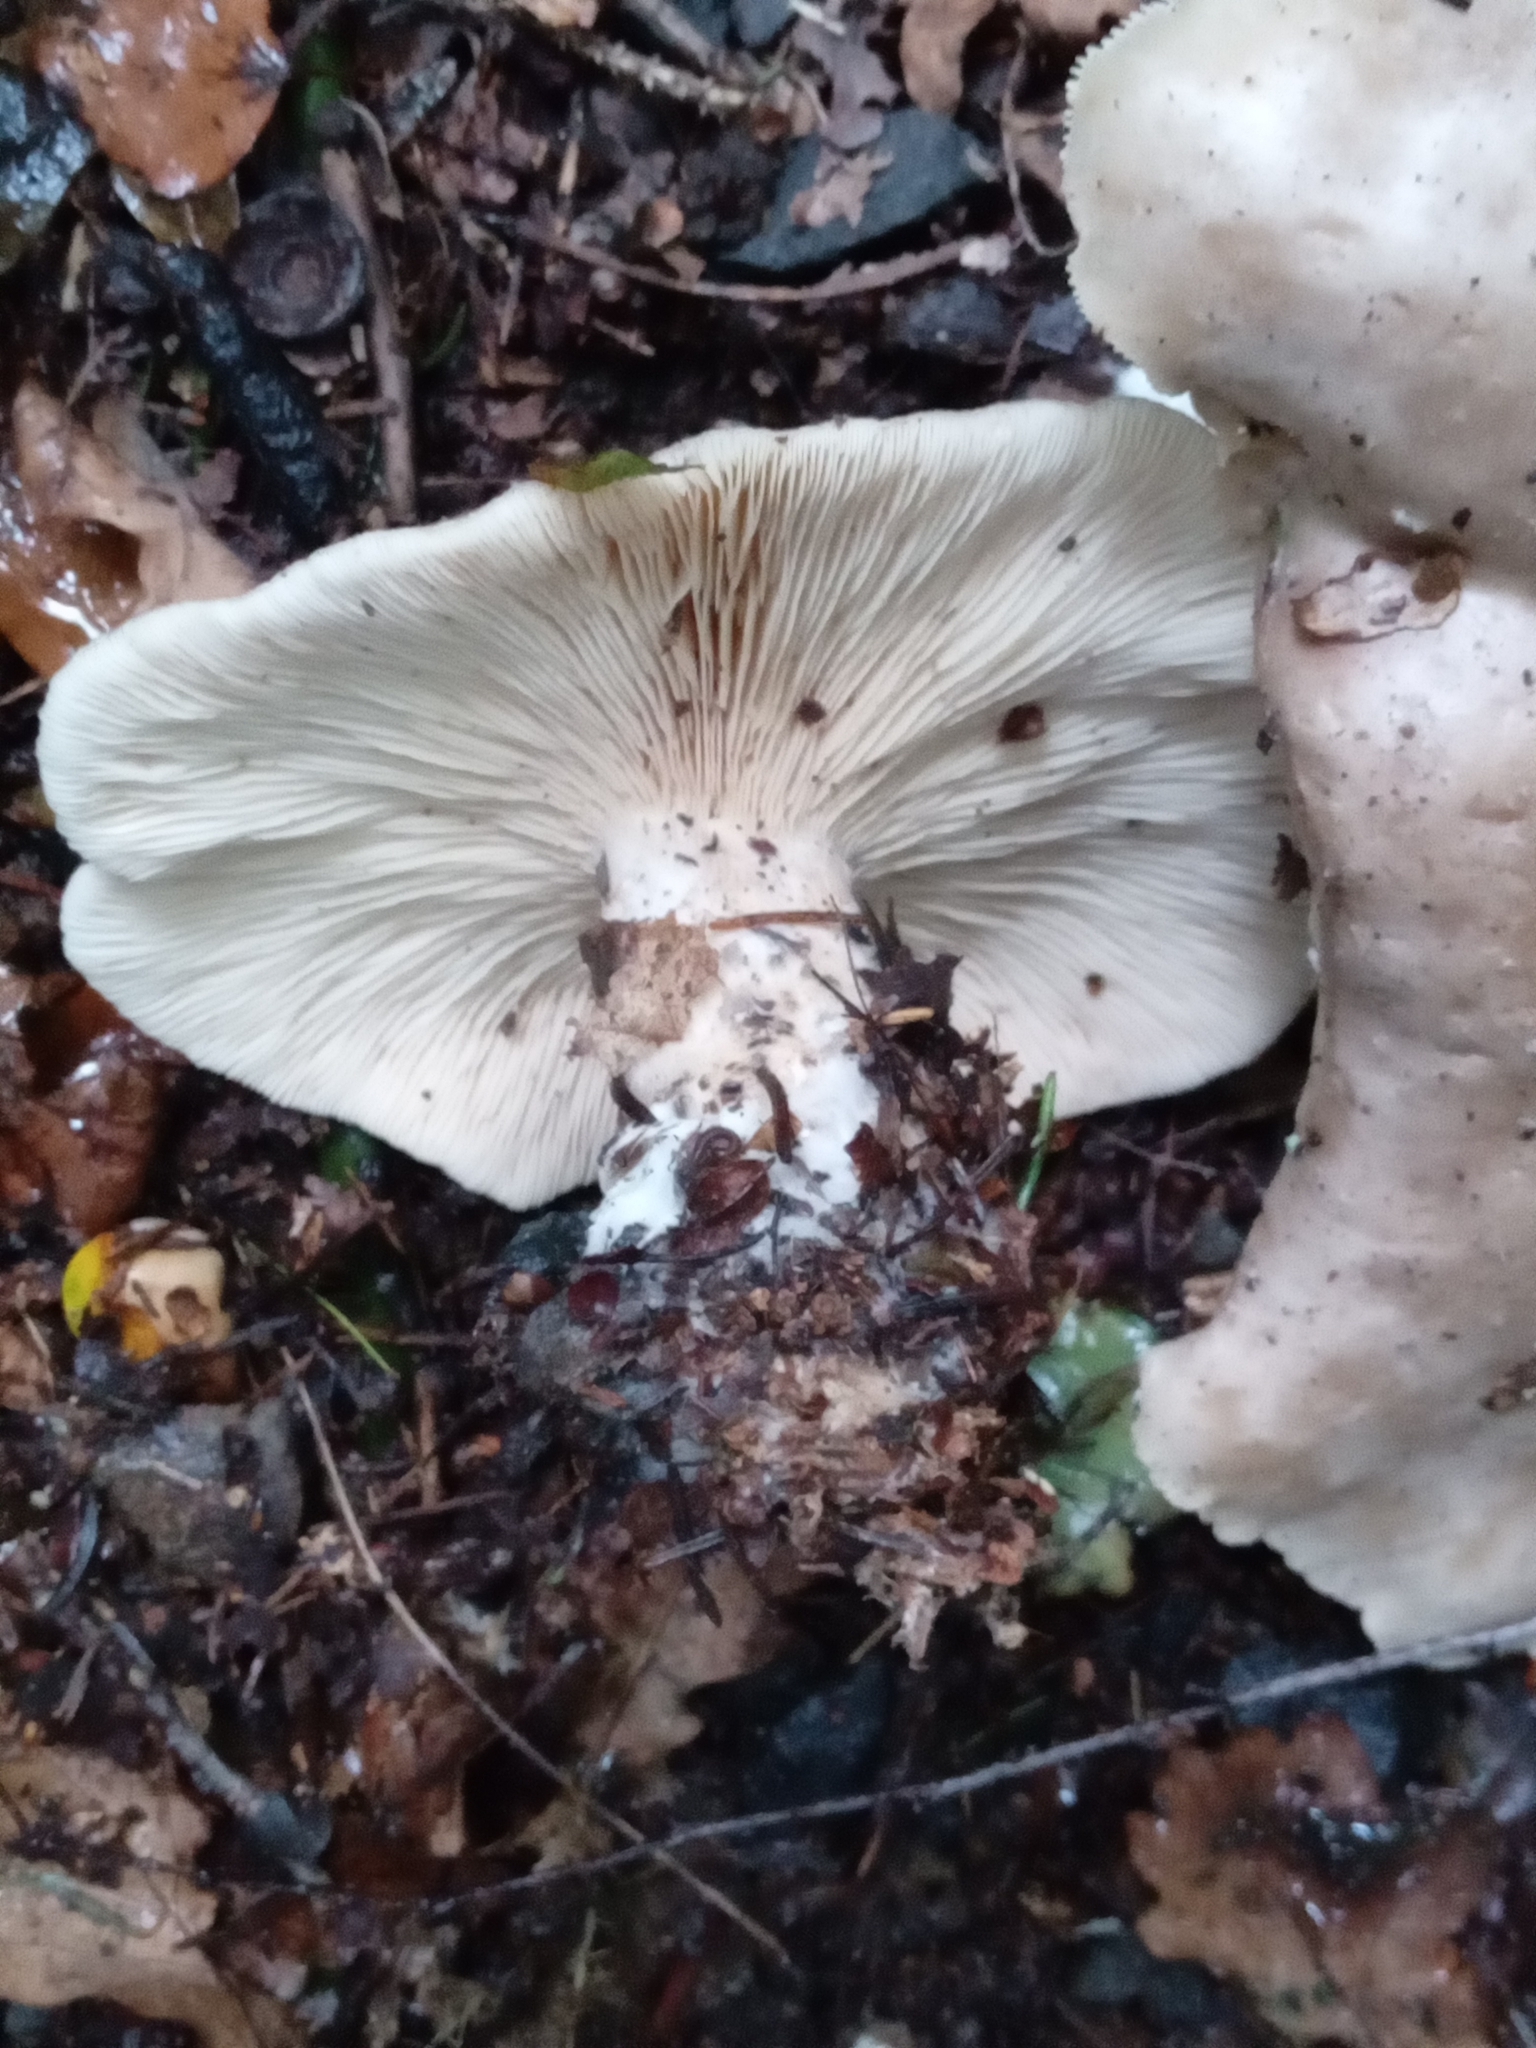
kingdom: Fungi
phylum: Basidiomycota
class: Agaricomycetes
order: Agaricales
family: Tricholomataceae
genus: Clitocybe
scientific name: Clitocybe nebularis
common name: Clouded agaric
